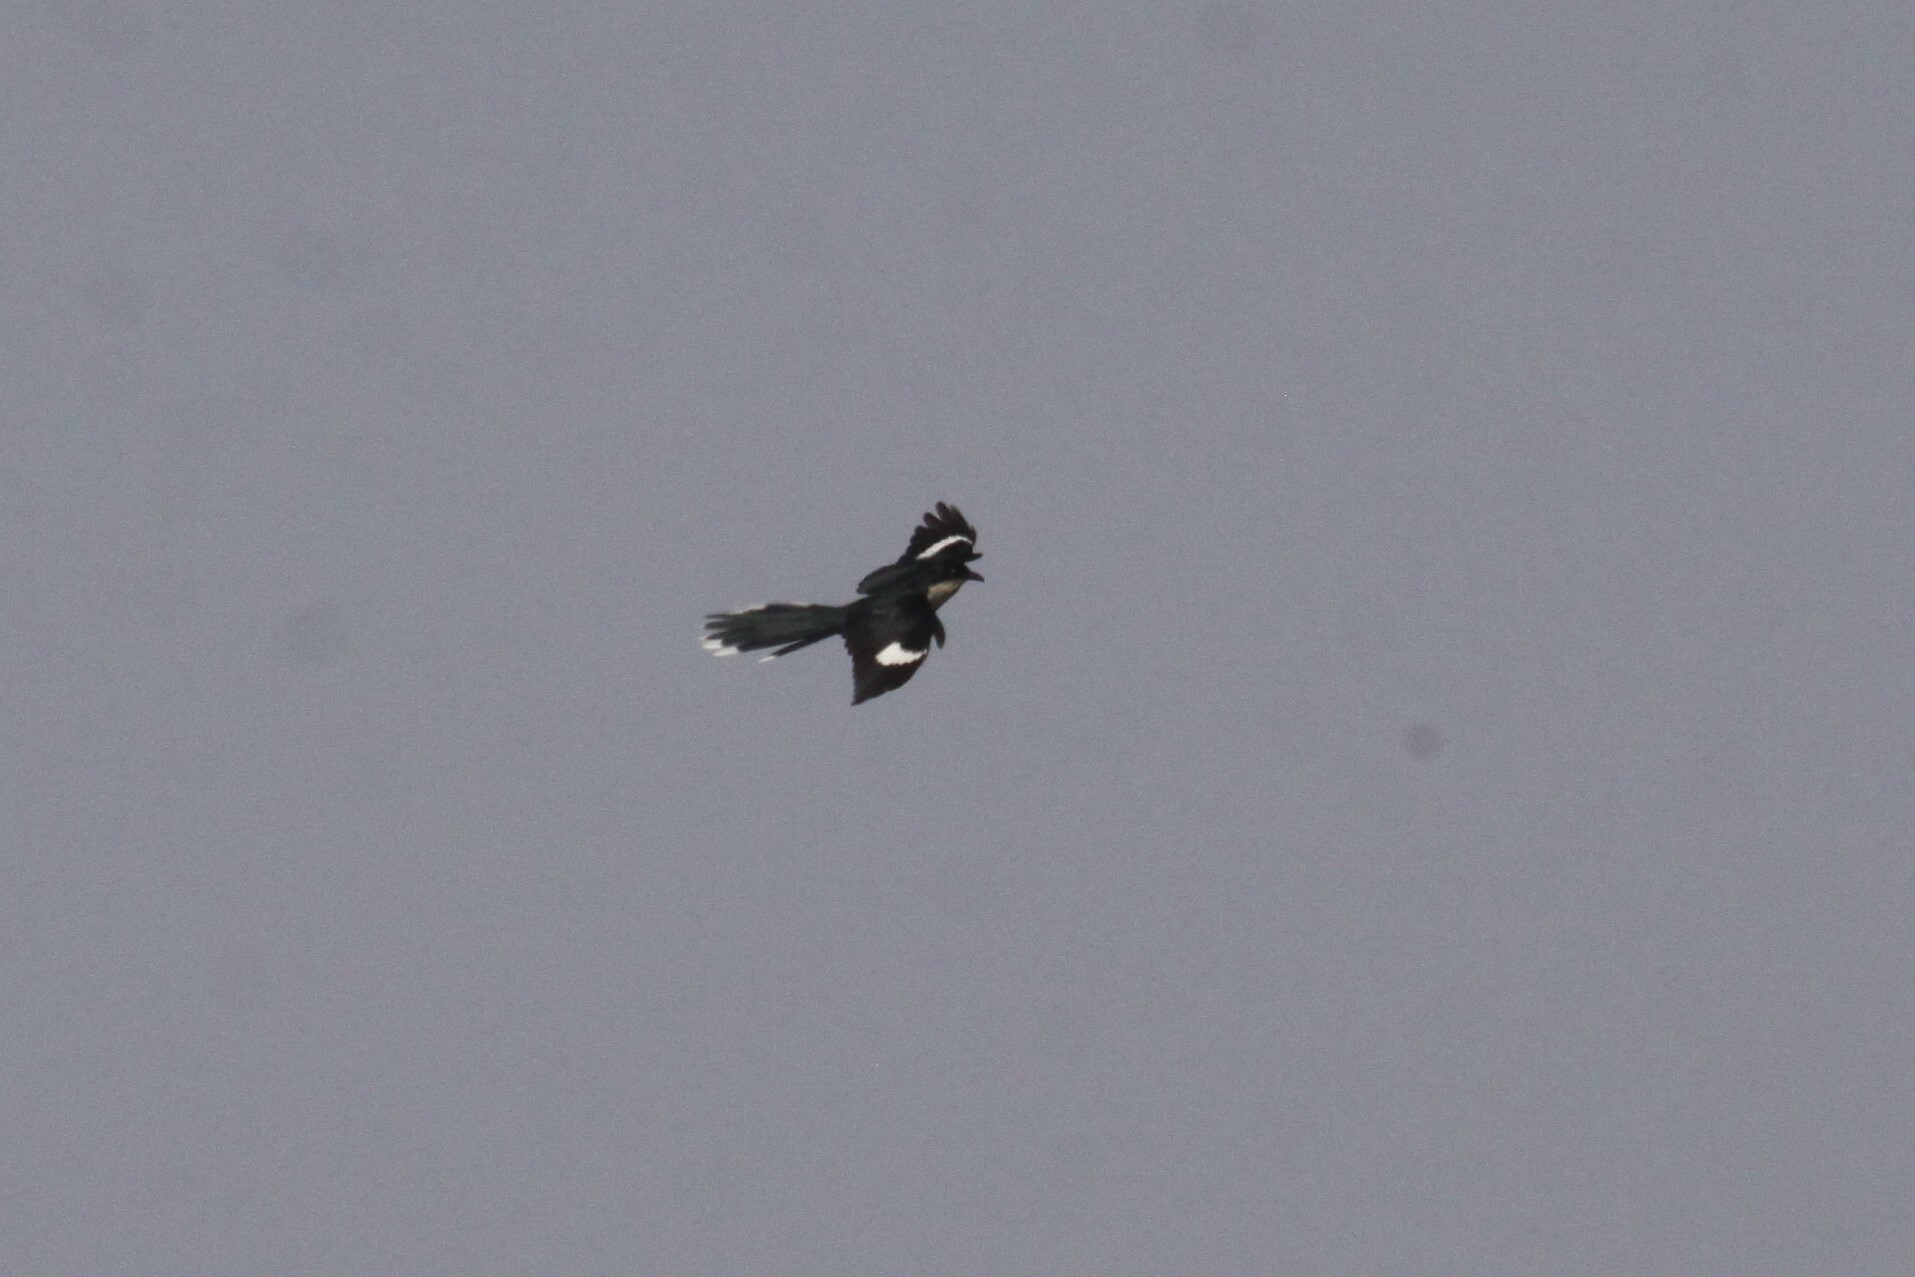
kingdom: Animalia
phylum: Chordata
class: Aves
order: Cuculiformes
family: Cuculidae
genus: Clamator
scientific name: Clamator jacobinus
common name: Jacobin cuckoo
